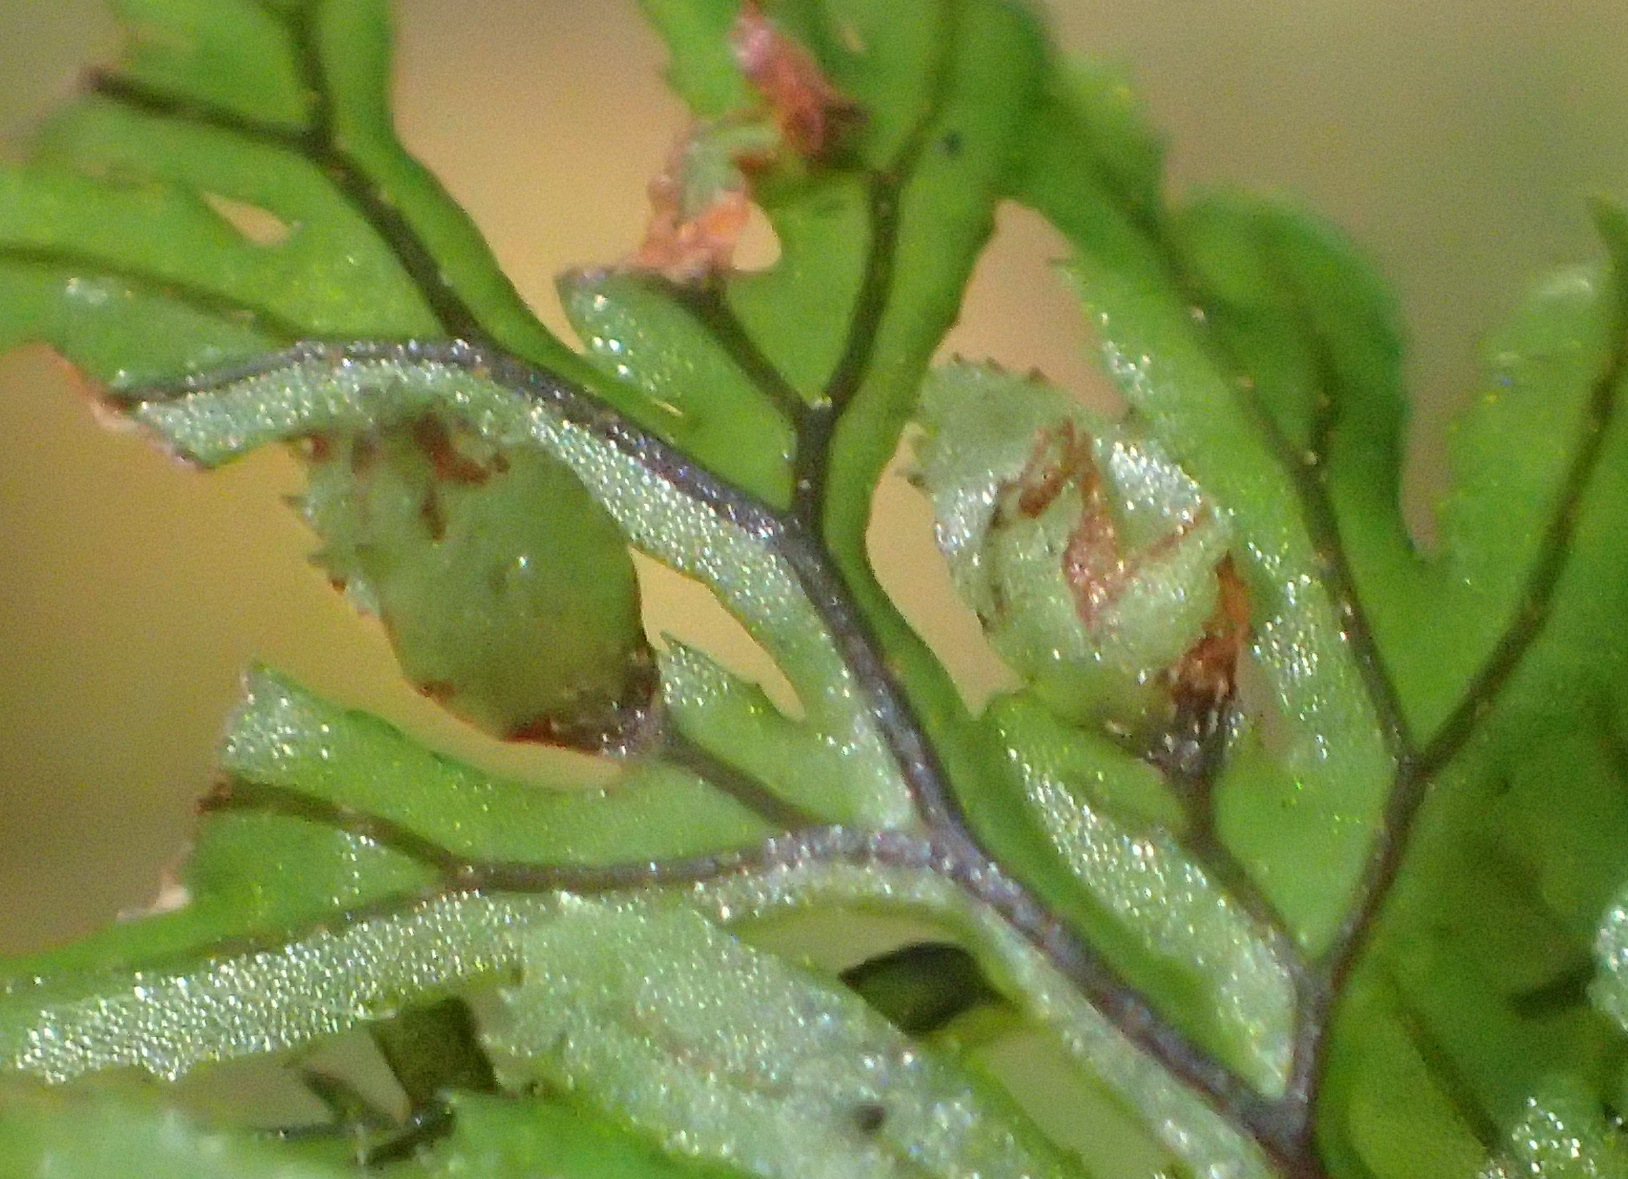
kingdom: Plantae
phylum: Tracheophyta
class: Polypodiopsida
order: Hymenophyllales
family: Hymenophyllaceae
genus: Hymenophyllum
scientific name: Hymenophyllum tunbrigense
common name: Tunbridge filmy fern
